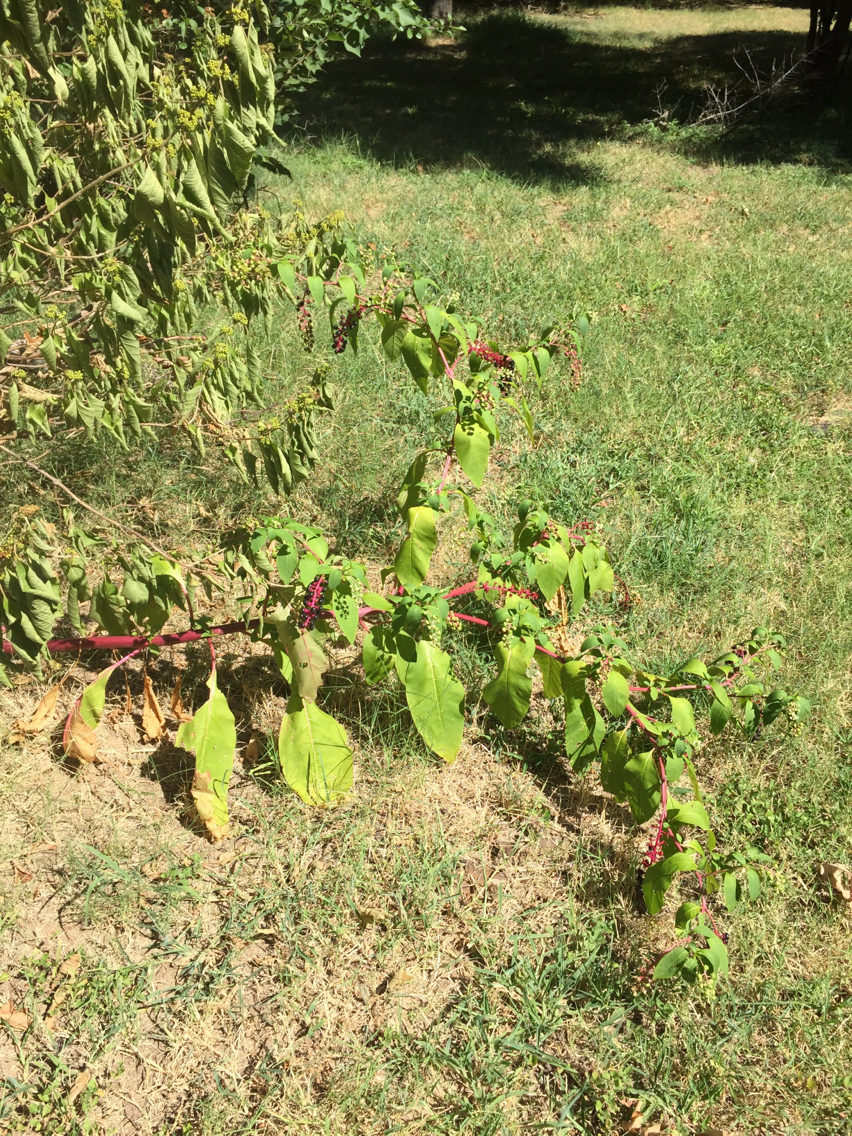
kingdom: Plantae
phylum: Tracheophyta
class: Magnoliopsida
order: Caryophyllales
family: Phytolaccaceae
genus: Phytolacca
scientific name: Phytolacca americana
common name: American pokeweed
